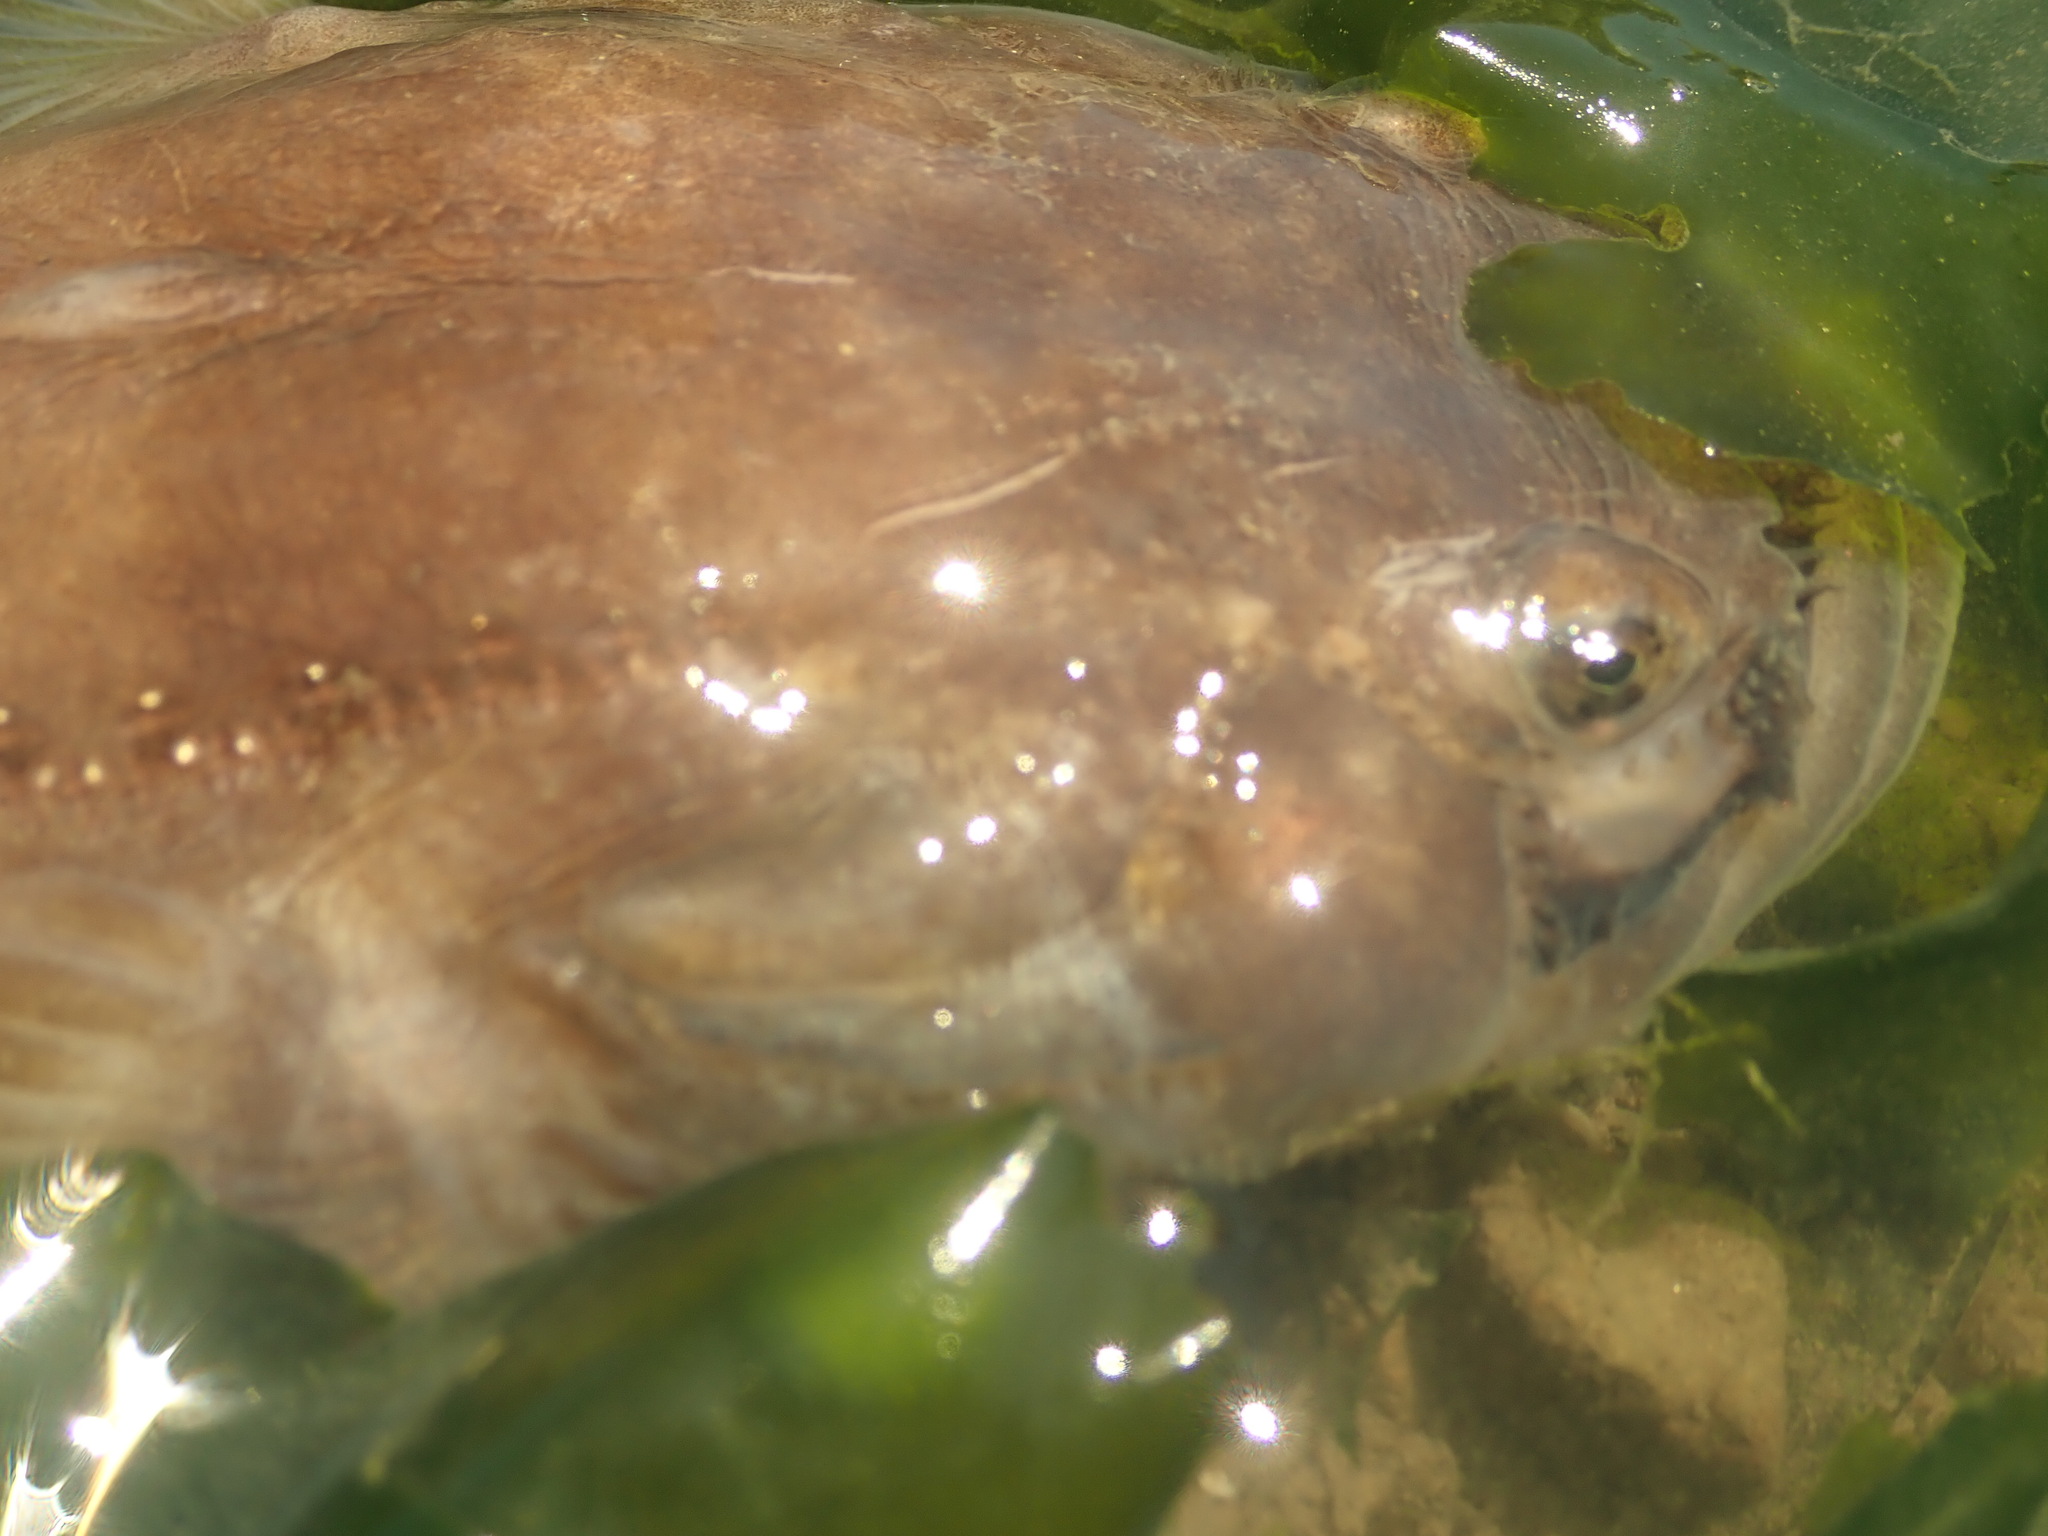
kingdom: Animalia
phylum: Chordata
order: Batrachoidiformes
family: Batrachoididae
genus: Porichthys
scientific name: Porichthys notatus
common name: Plainfin midshipman
